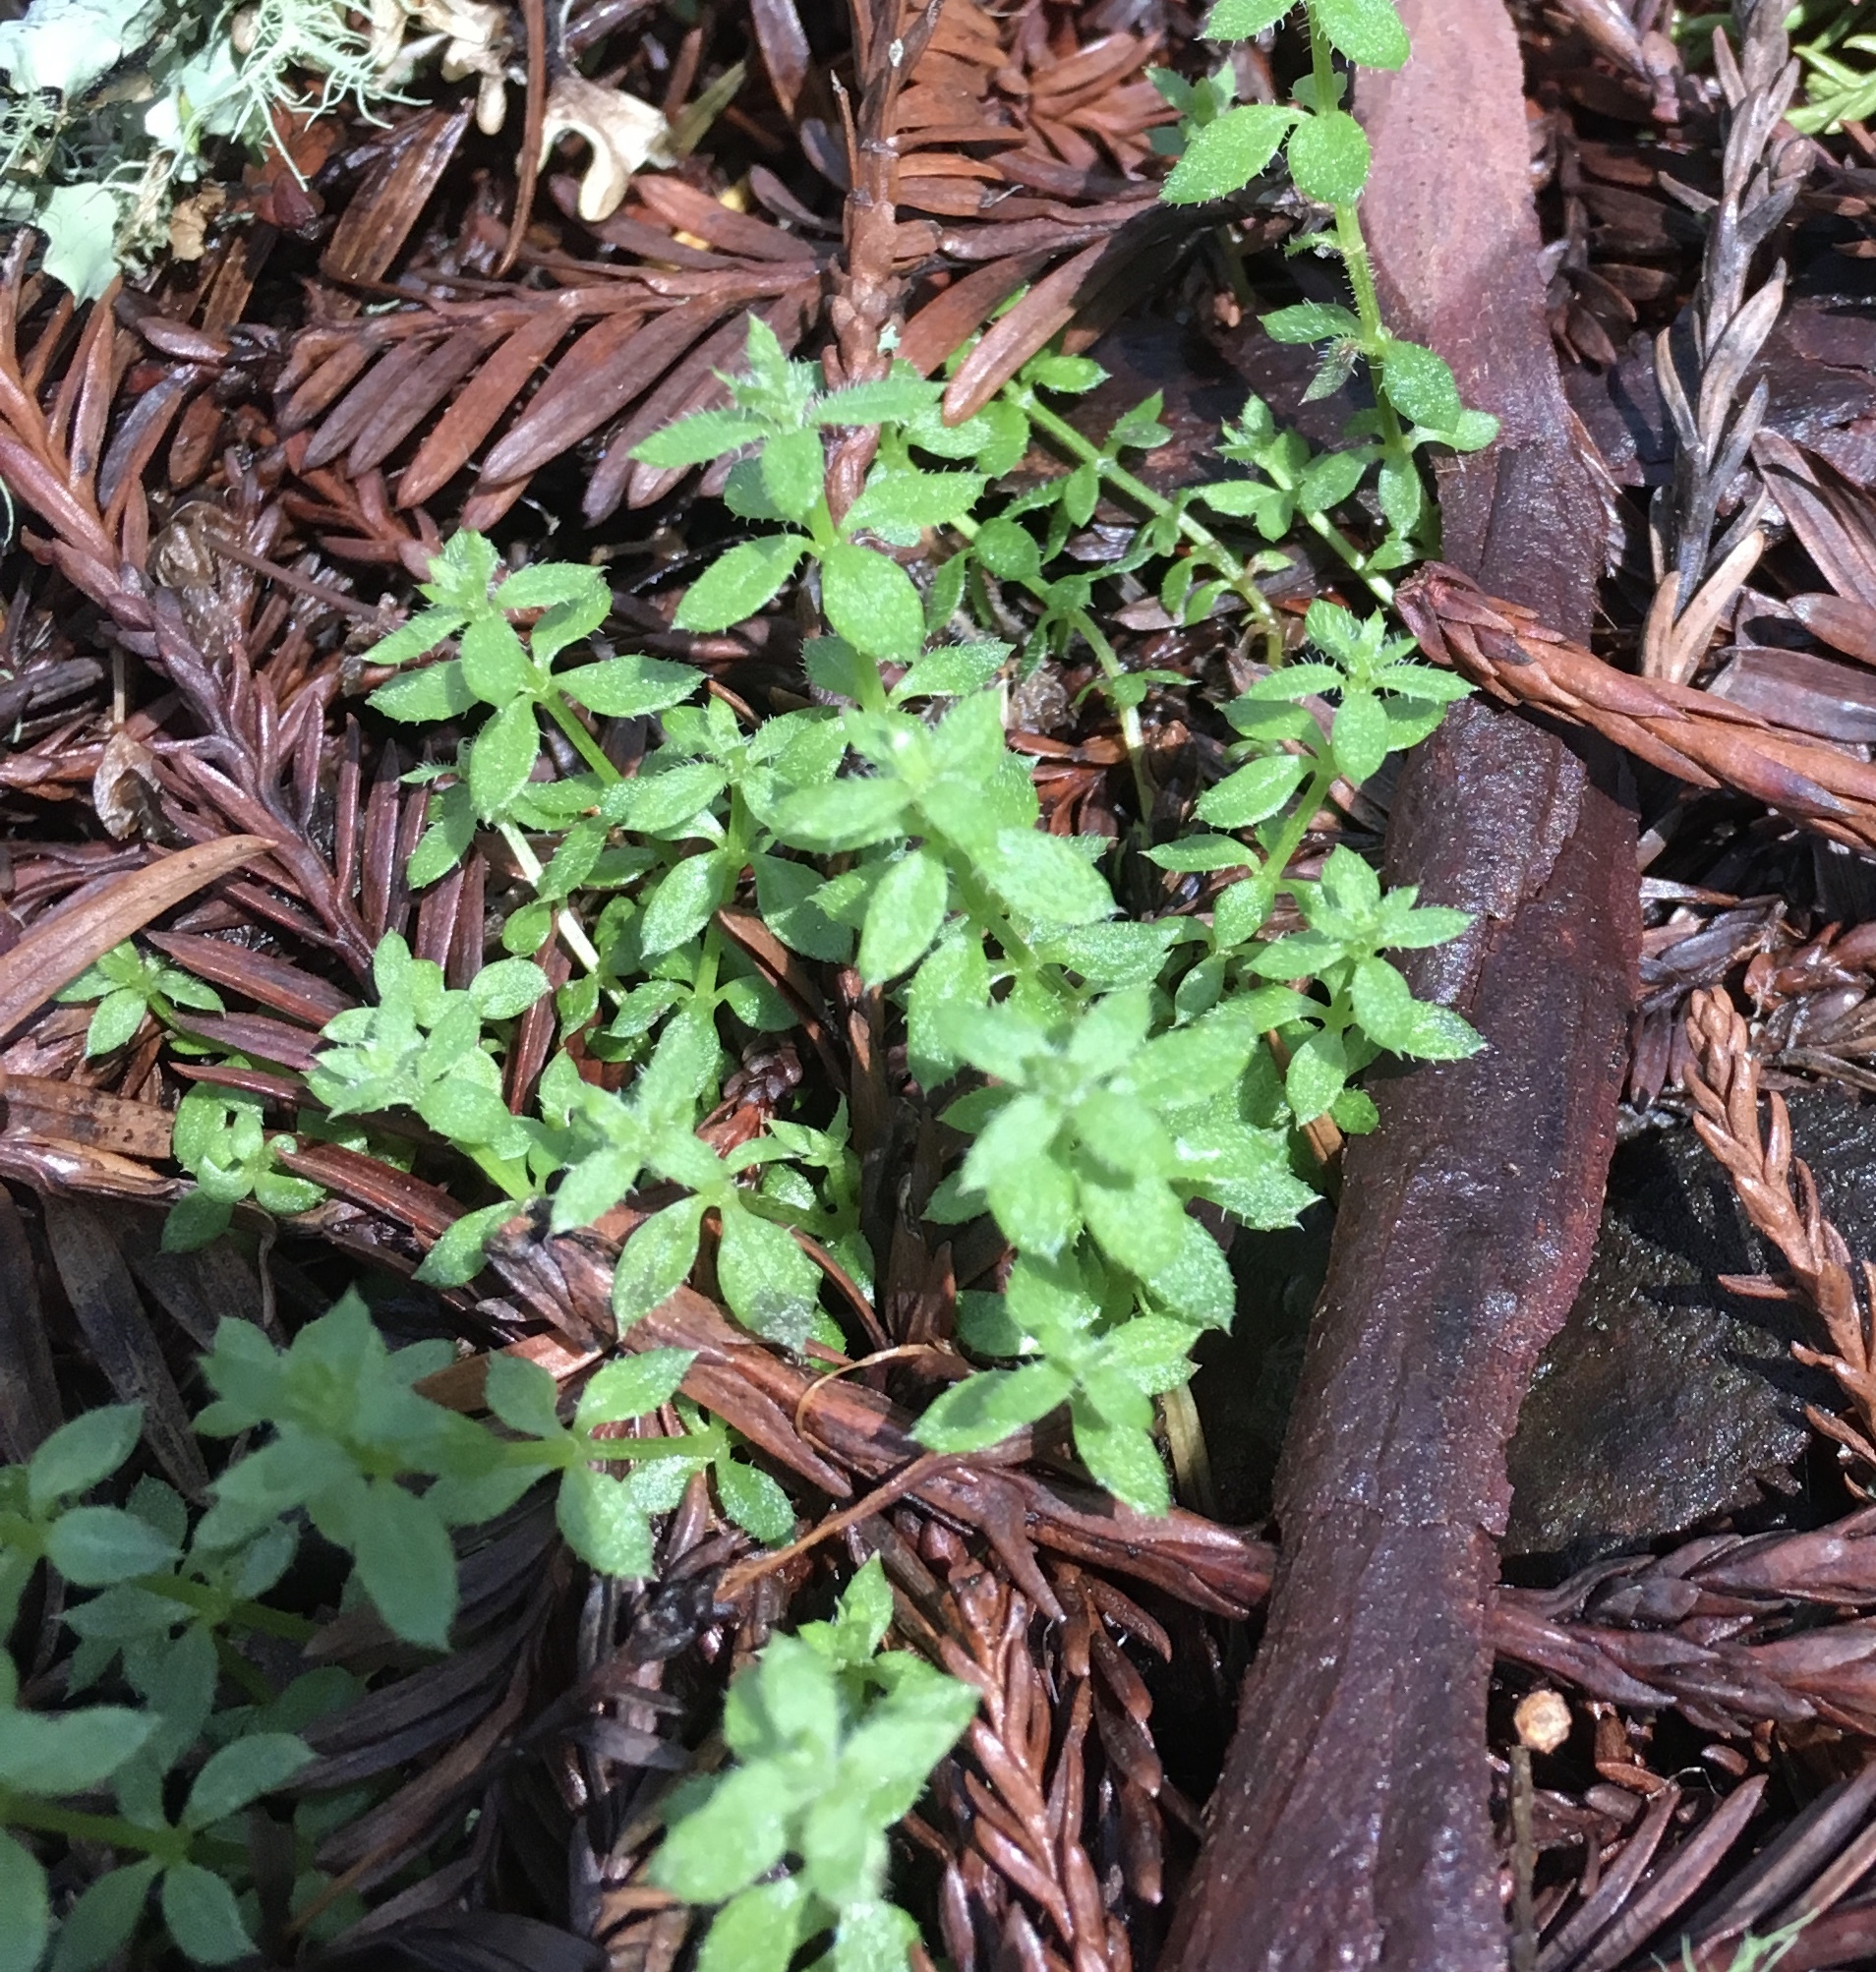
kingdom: Plantae
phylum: Tracheophyta
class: Magnoliopsida
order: Gentianales
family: Rubiaceae
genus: Galium
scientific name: Galium californicum
